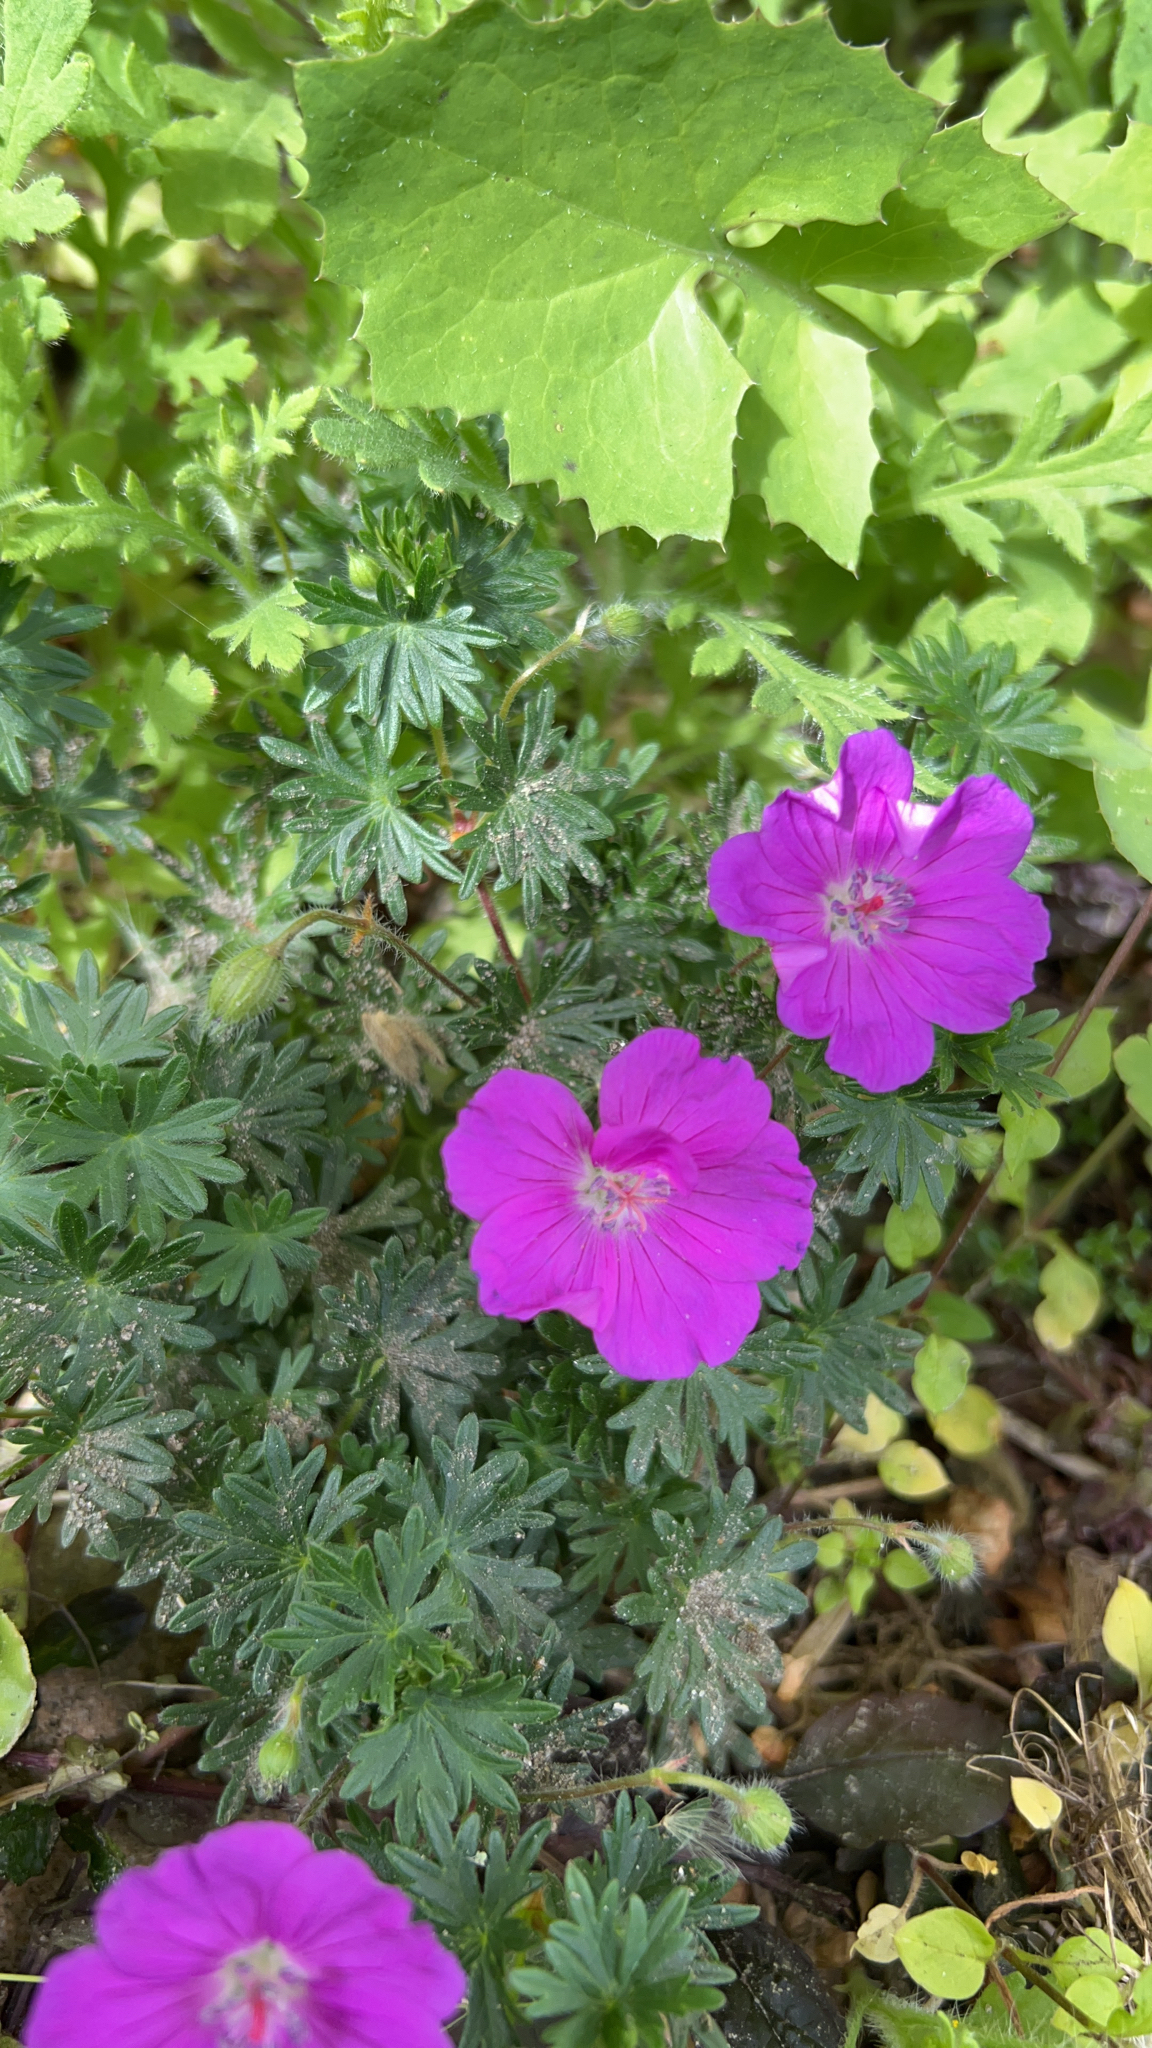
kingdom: Plantae
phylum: Tracheophyta
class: Magnoliopsida
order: Geraniales
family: Geraniaceae
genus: Geranium
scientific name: Geranium sanguineum
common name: Bloody crane's-bill
